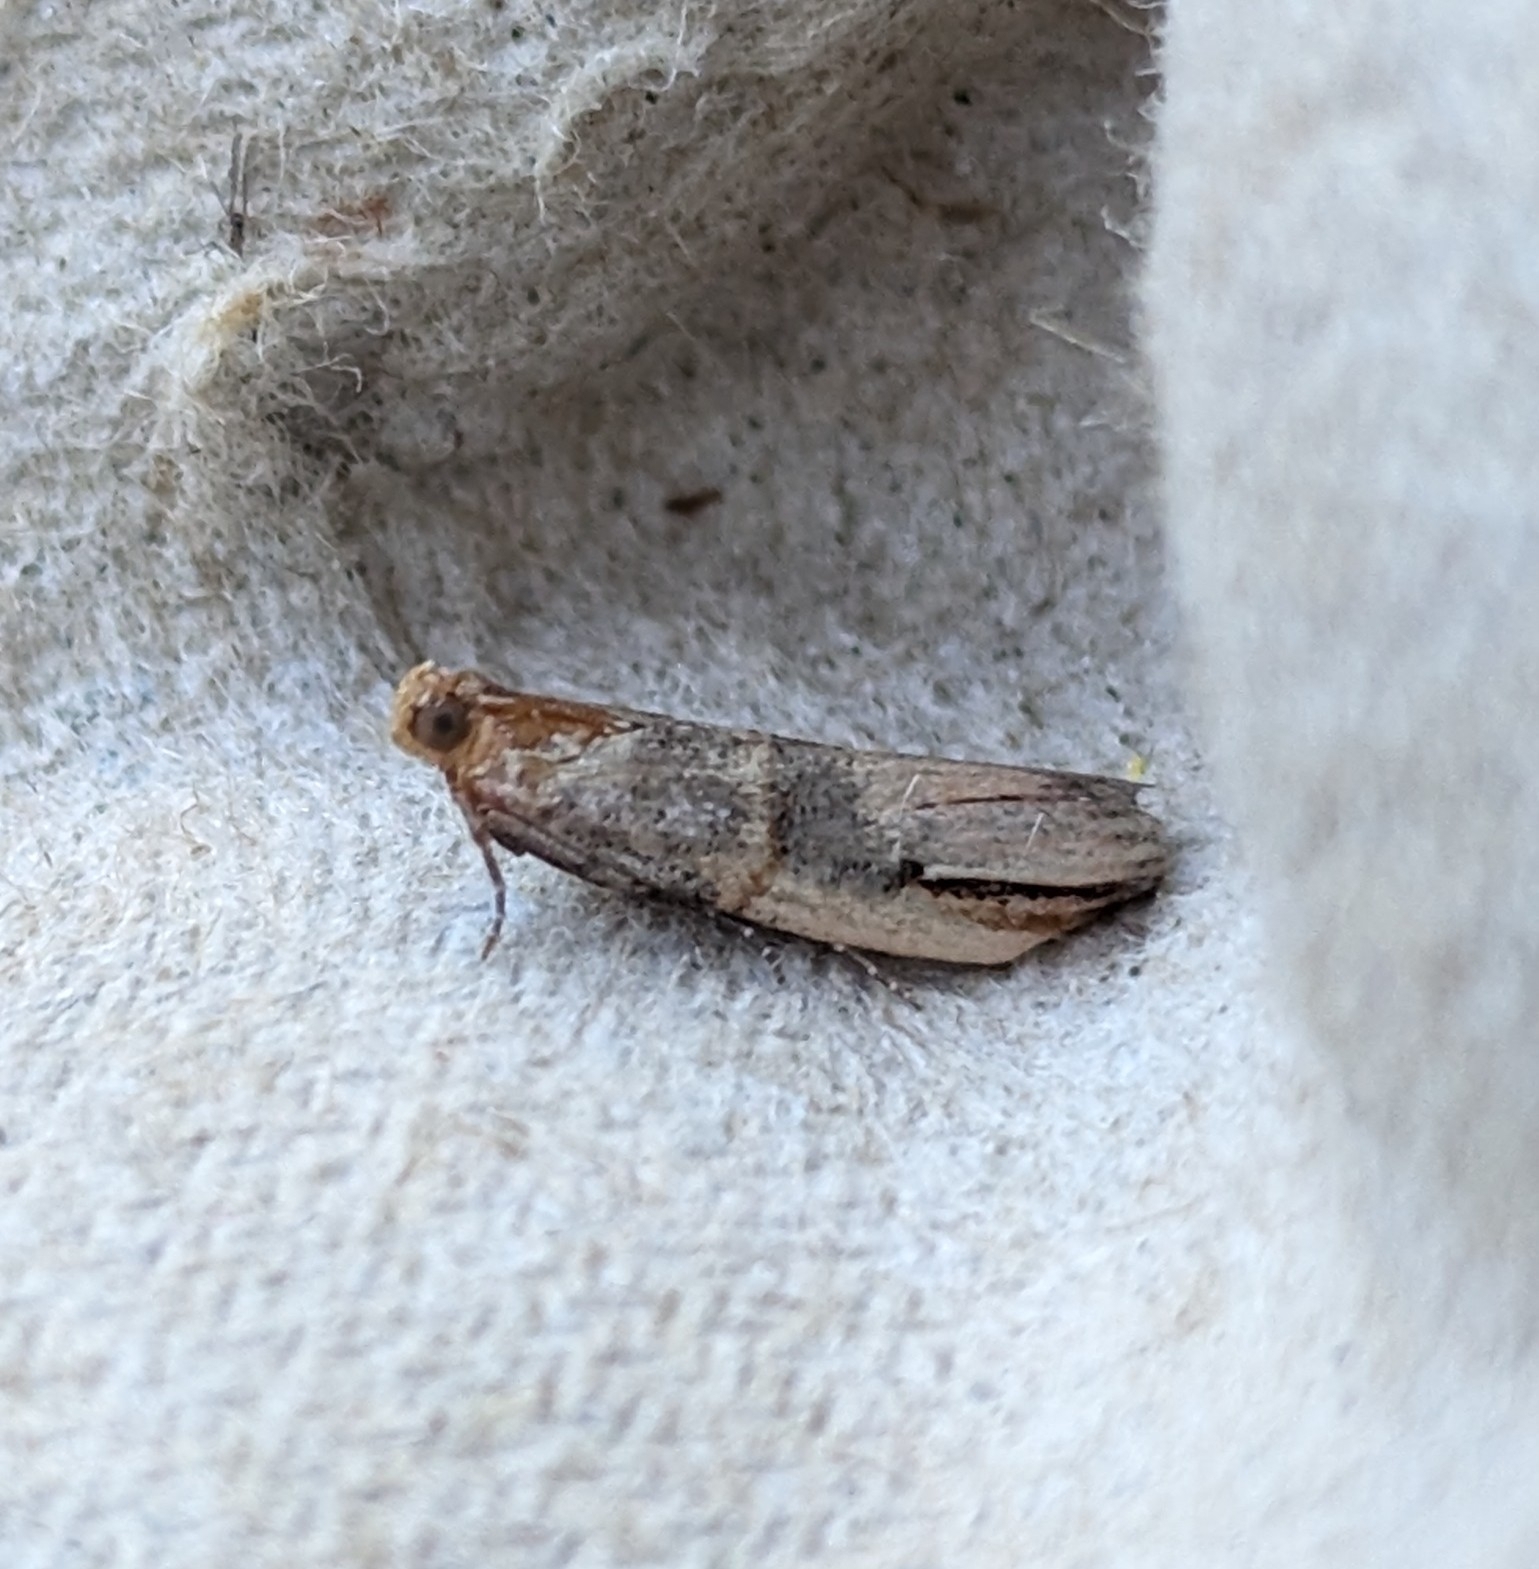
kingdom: Animalia
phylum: Arthropoda
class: Insecta
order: Lepidoptera
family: Pyralidae
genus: Dasypyga
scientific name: Dasypyga alternosquamella
